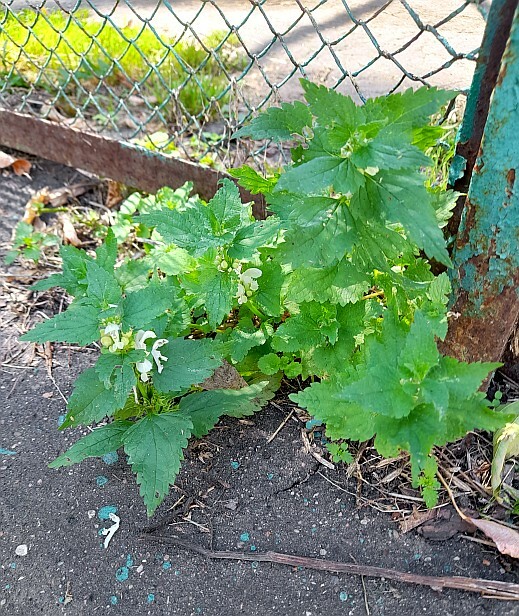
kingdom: Plantae
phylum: Tracheophyta
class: Magnoliopsida
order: Lamiales
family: Lamiaceae
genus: Lamium
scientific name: Lamium album
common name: White dead-nettle
